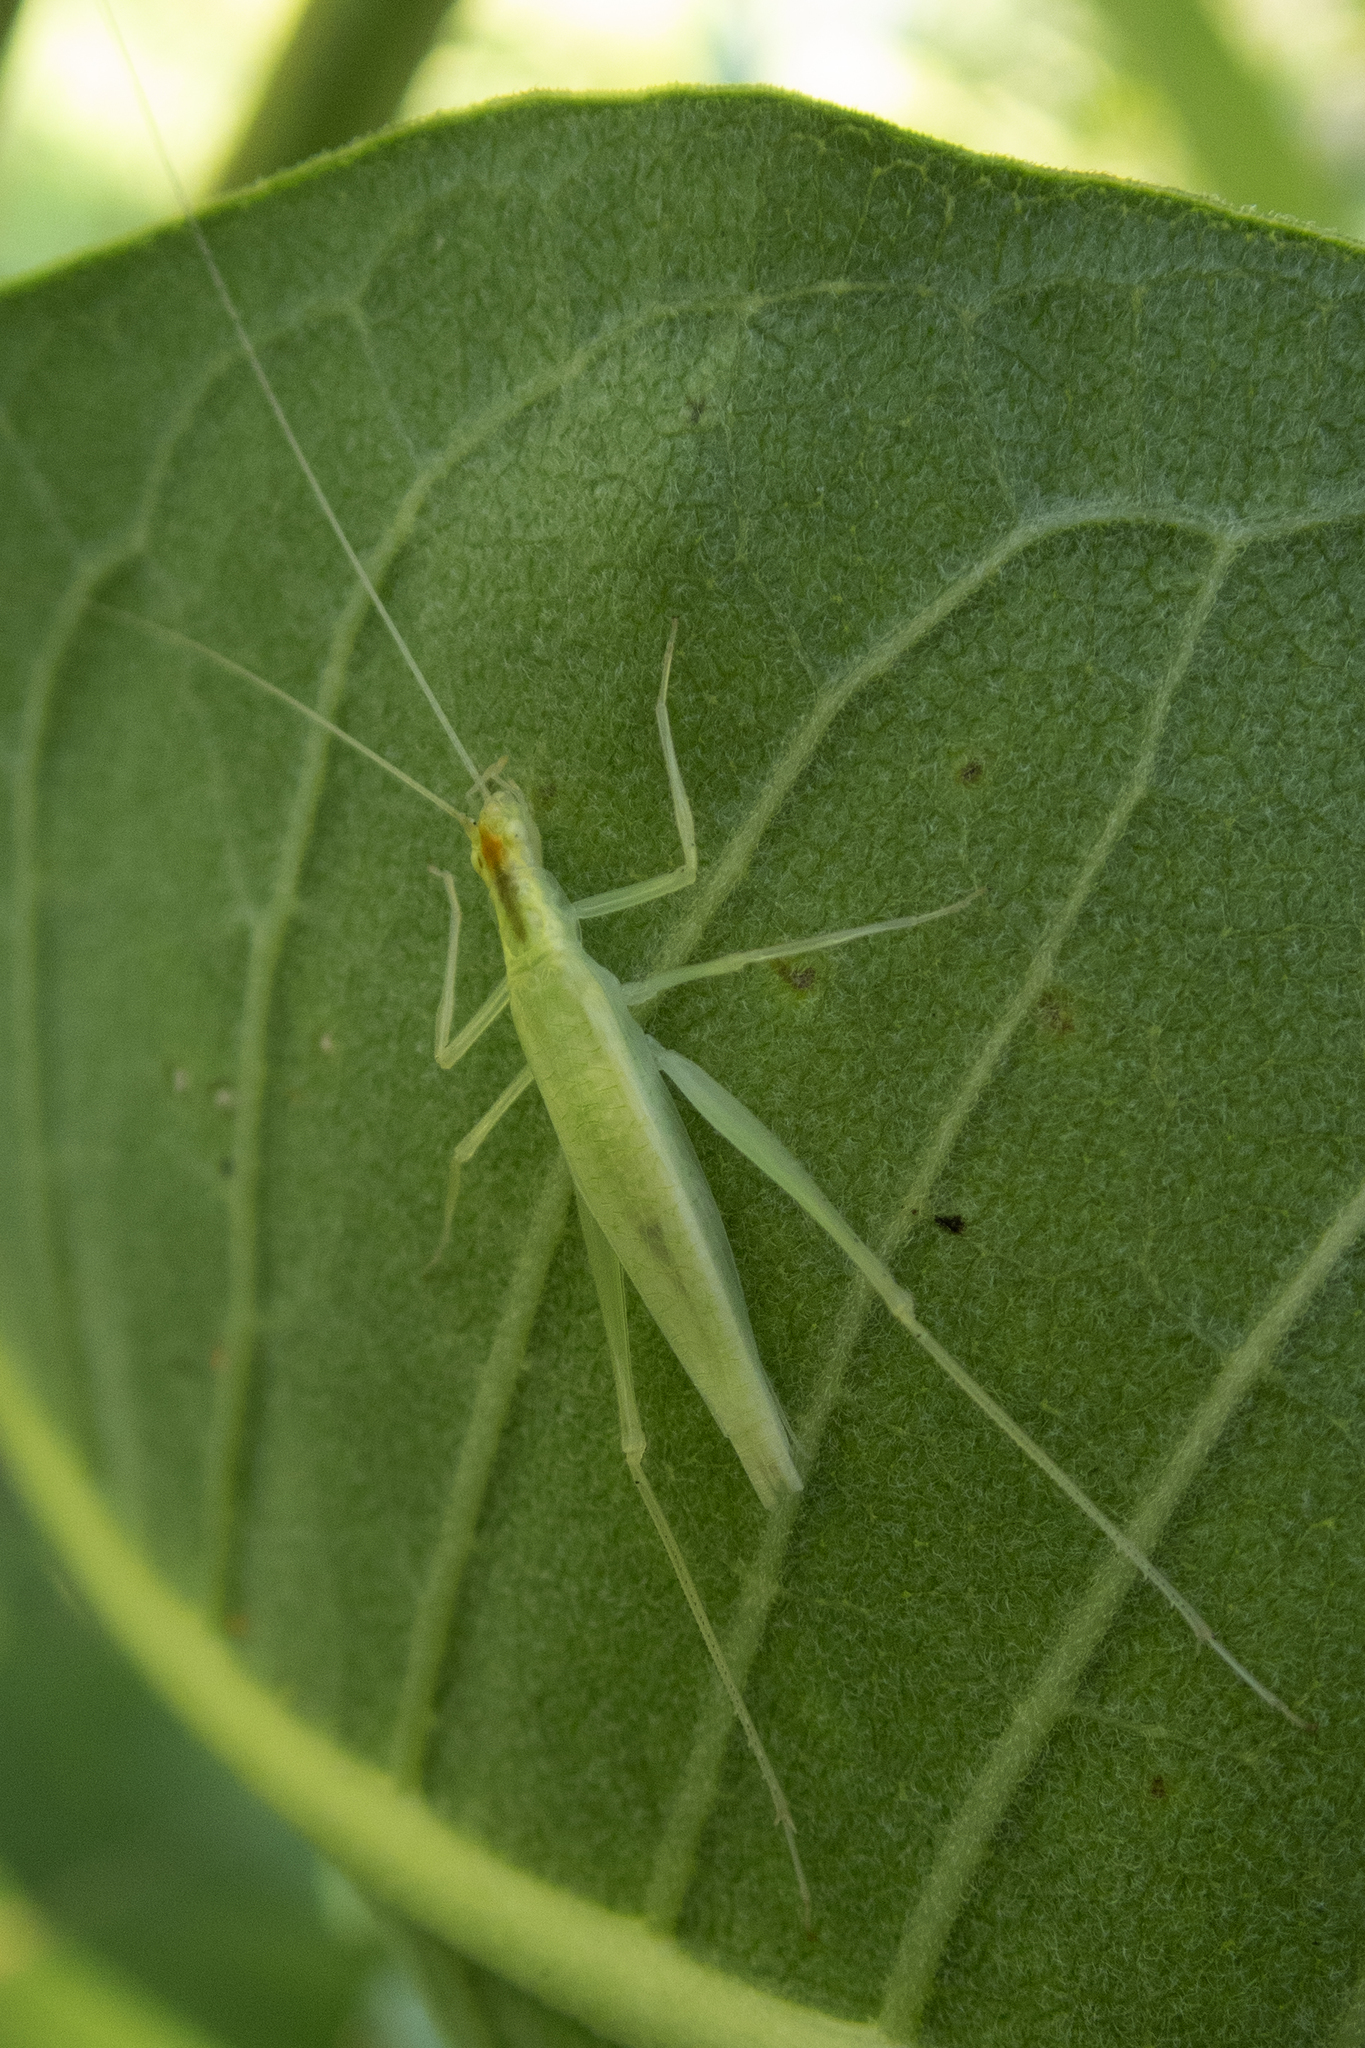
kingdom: Animalia
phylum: Arthropoda
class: Insecta
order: Orthoptera
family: Gryllidae
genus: Oecanthus
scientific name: Oecanthus
